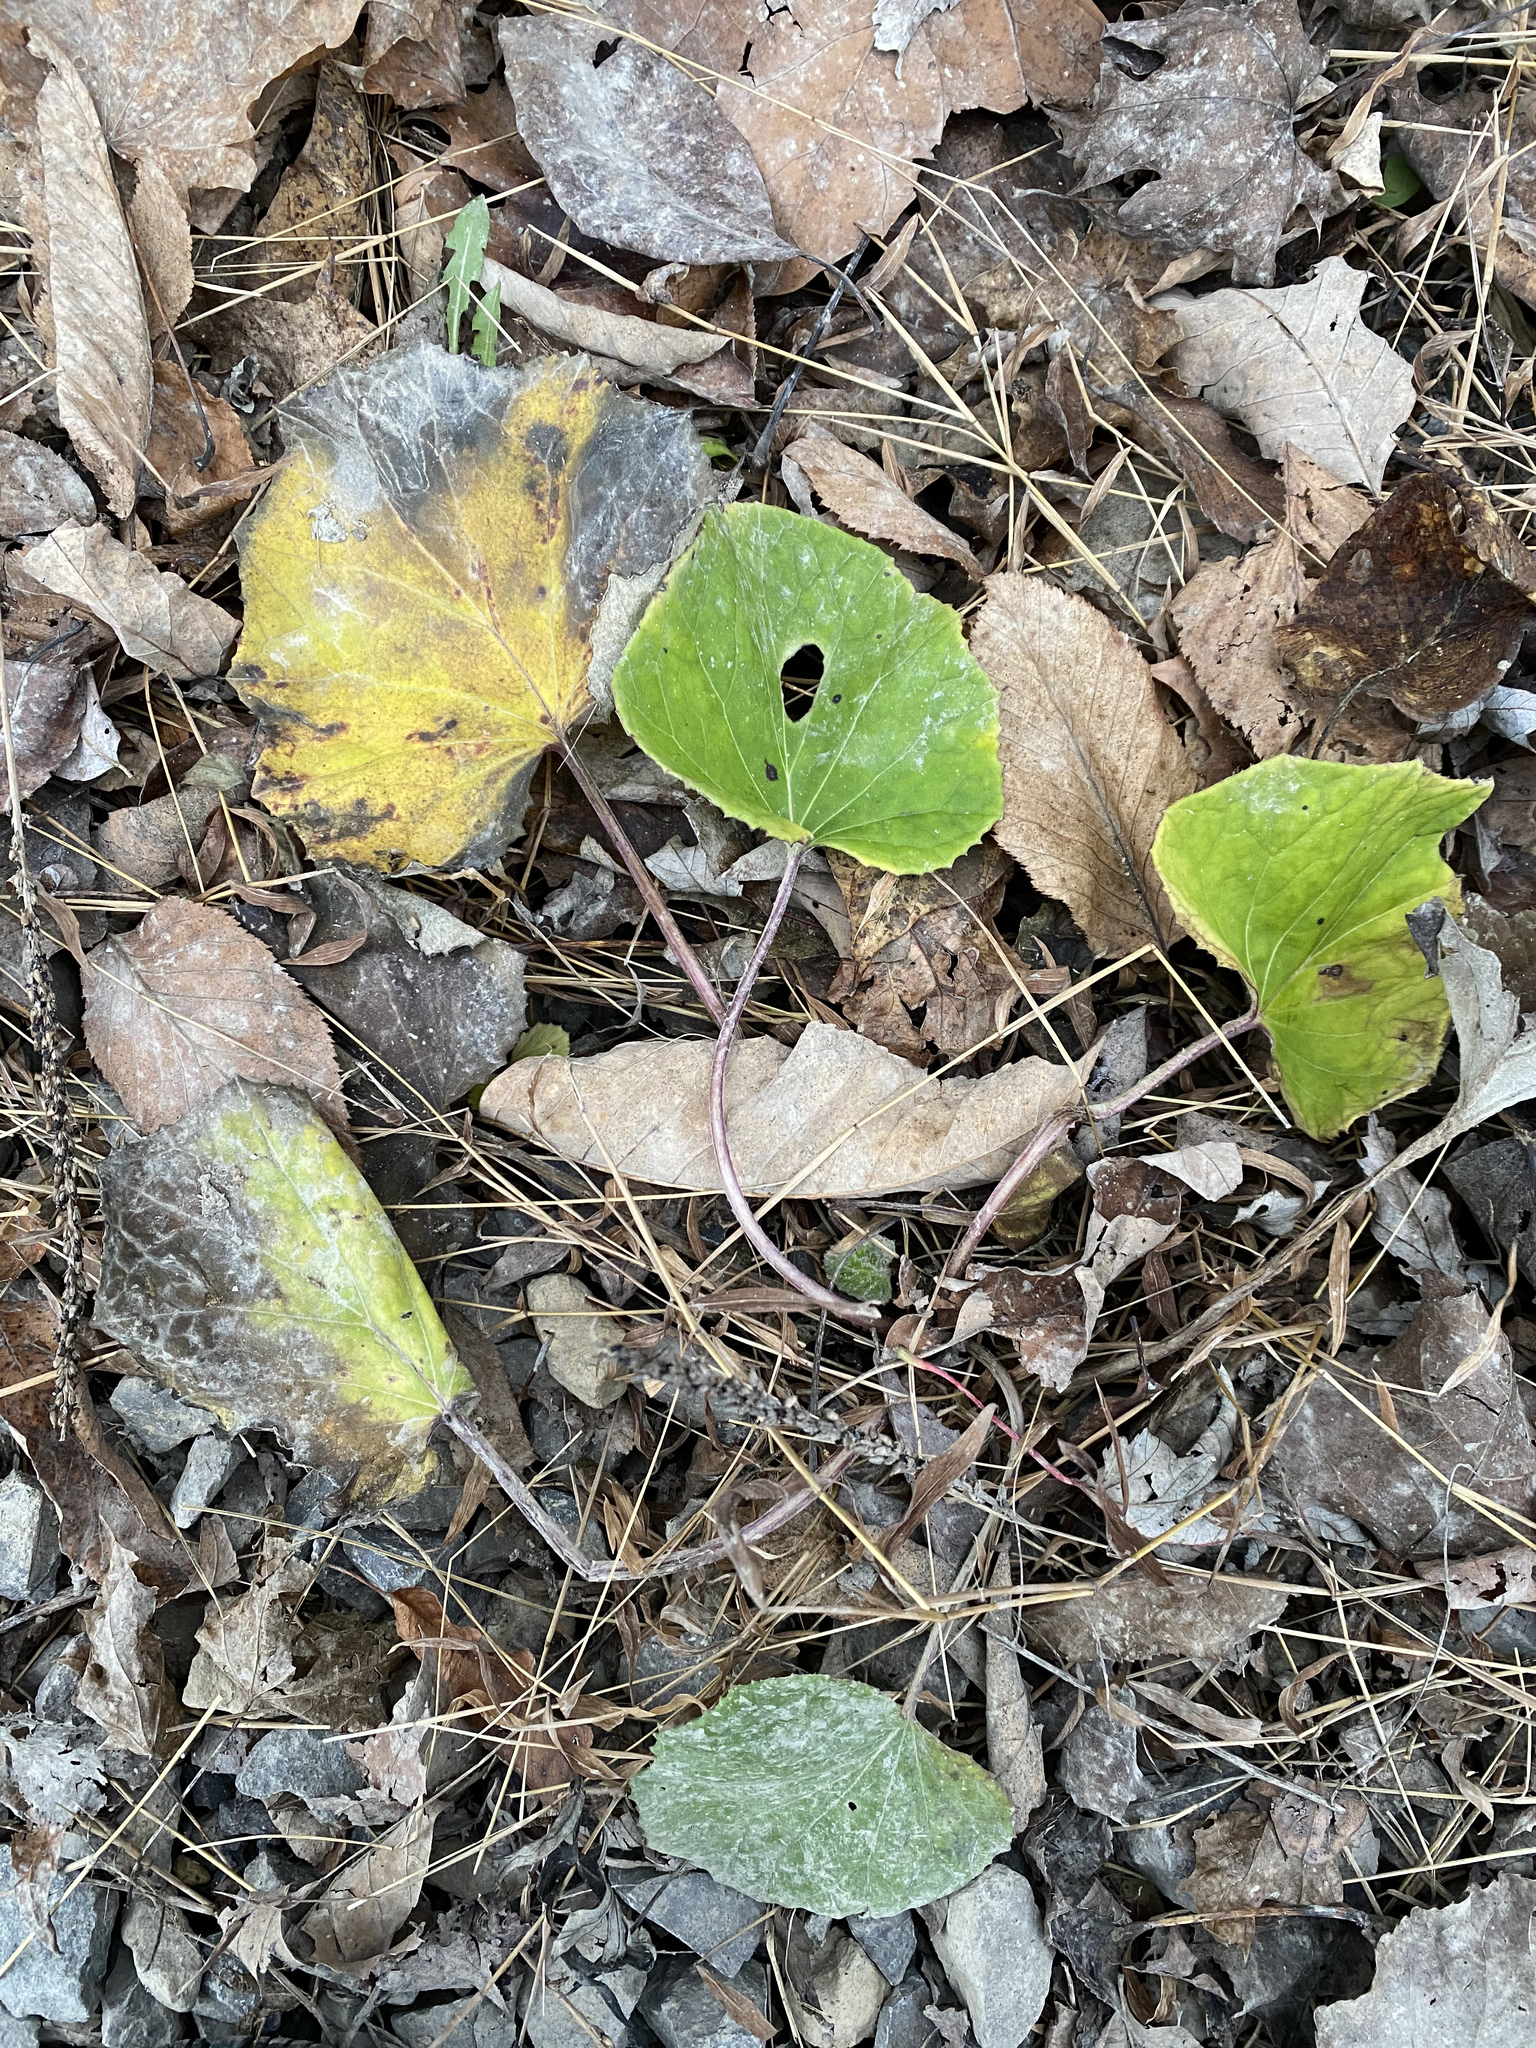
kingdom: Plantae
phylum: Tracheophyta
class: Magnoliopsida
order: Asterales
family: Asteraceae
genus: Tussilago
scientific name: Tussilago farfara
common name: Coltsfoot
